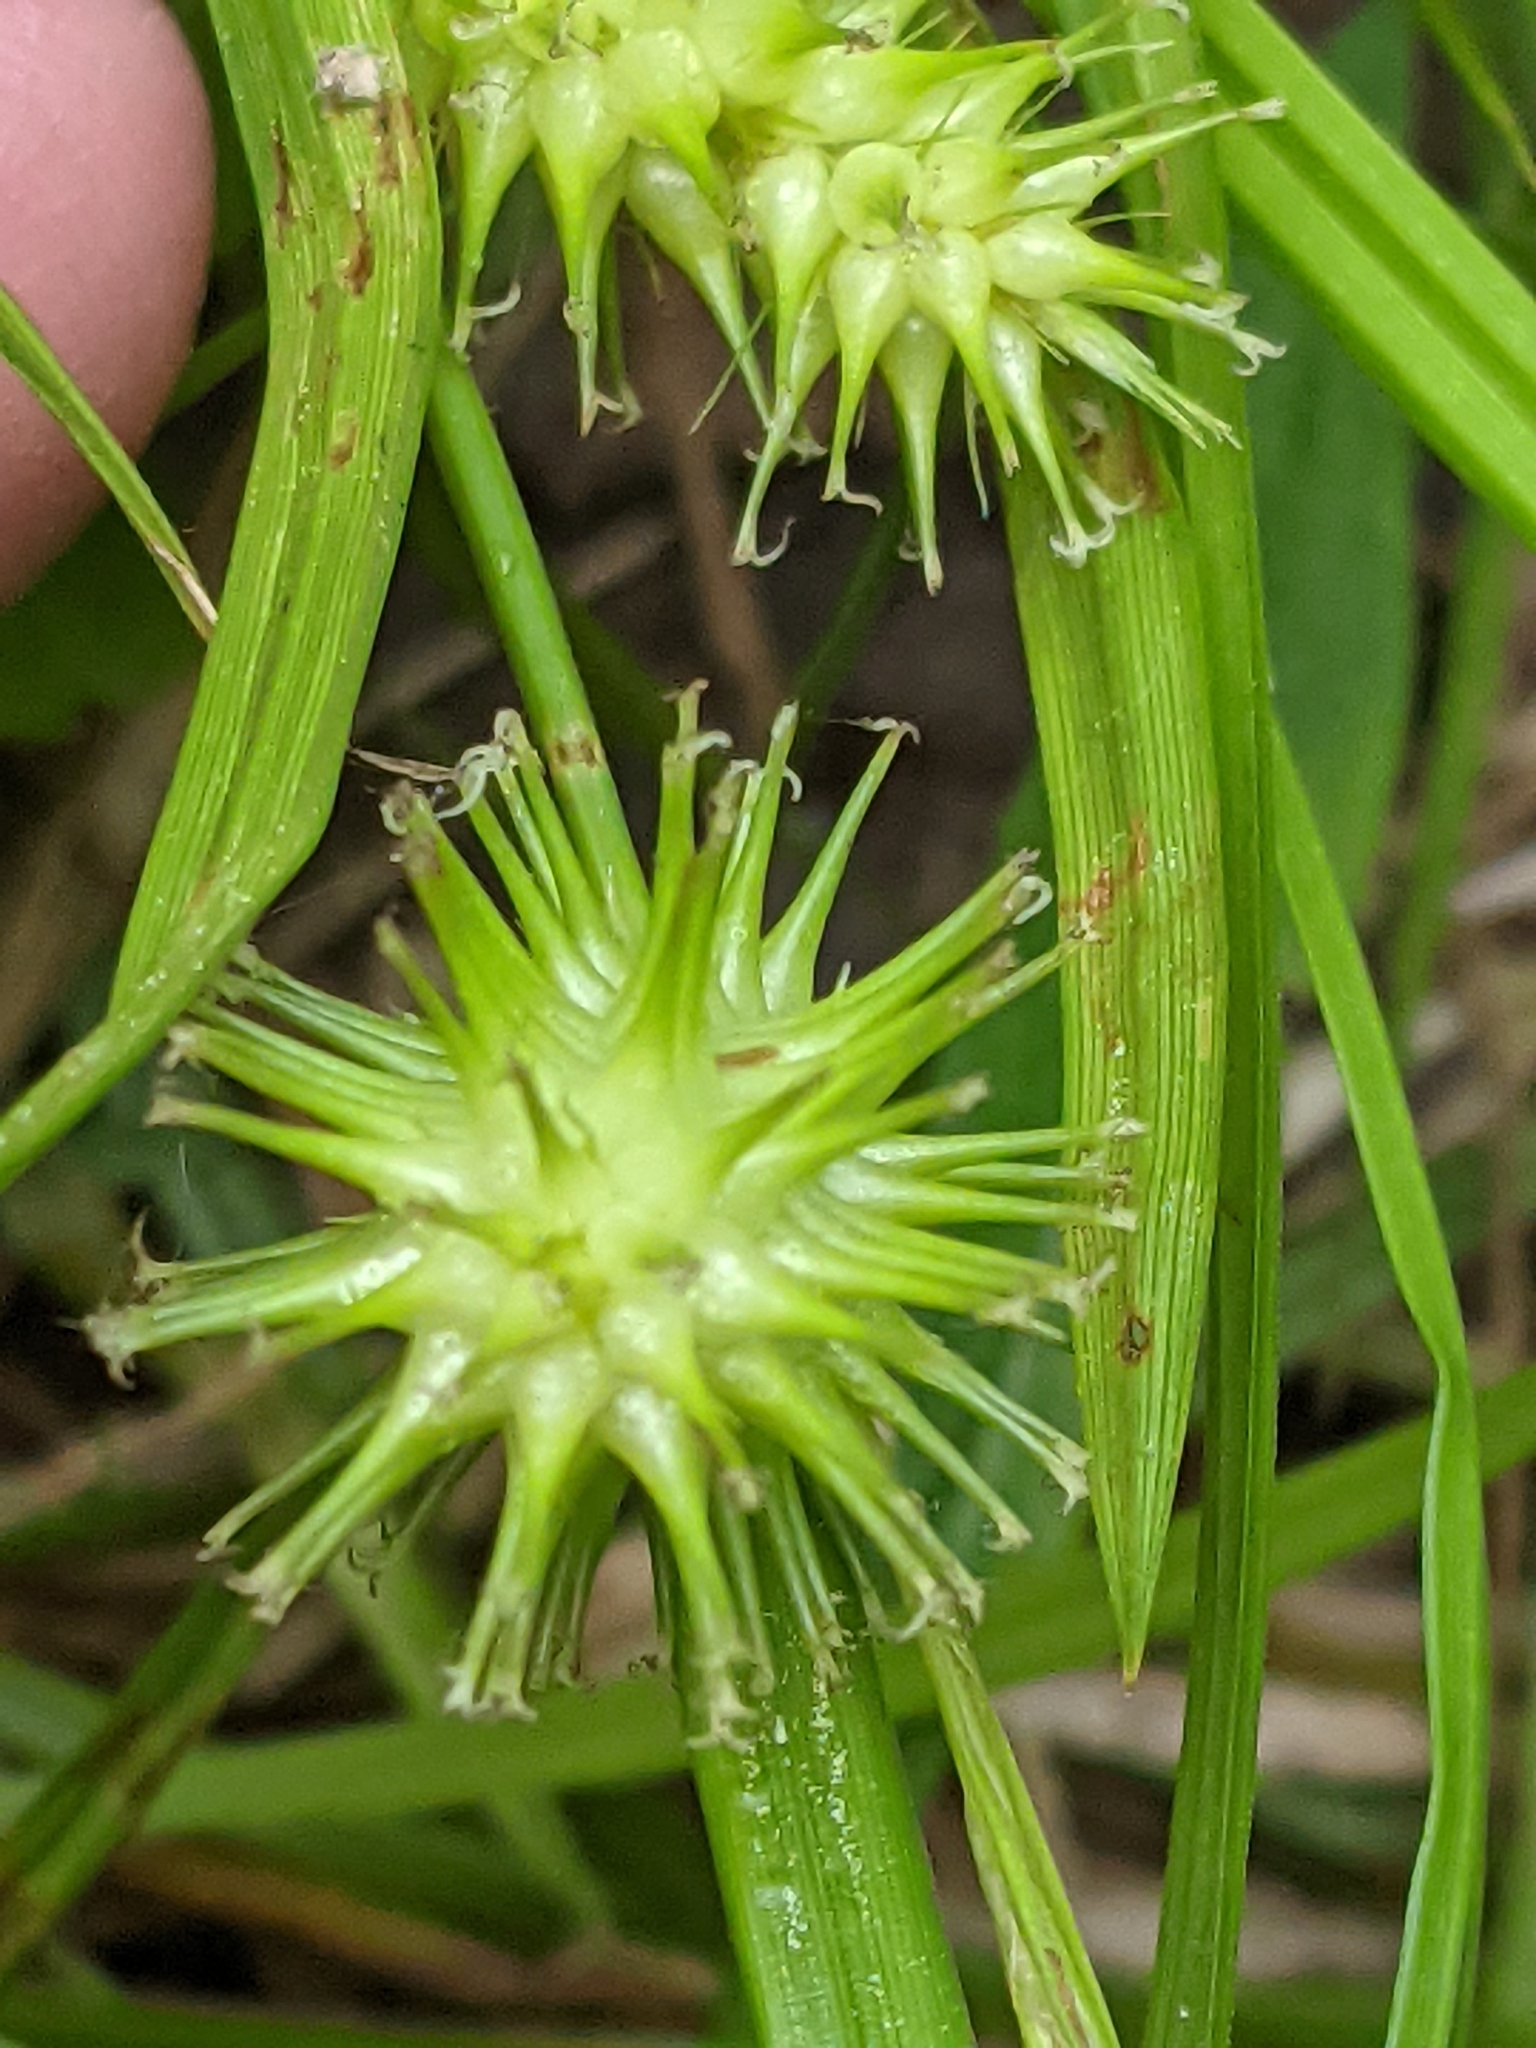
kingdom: Plantae
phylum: Tracheophyta
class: Liliopsida
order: Poales
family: Cyperaceae
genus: Carex
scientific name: Carex lurida
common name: Sallow sedge
